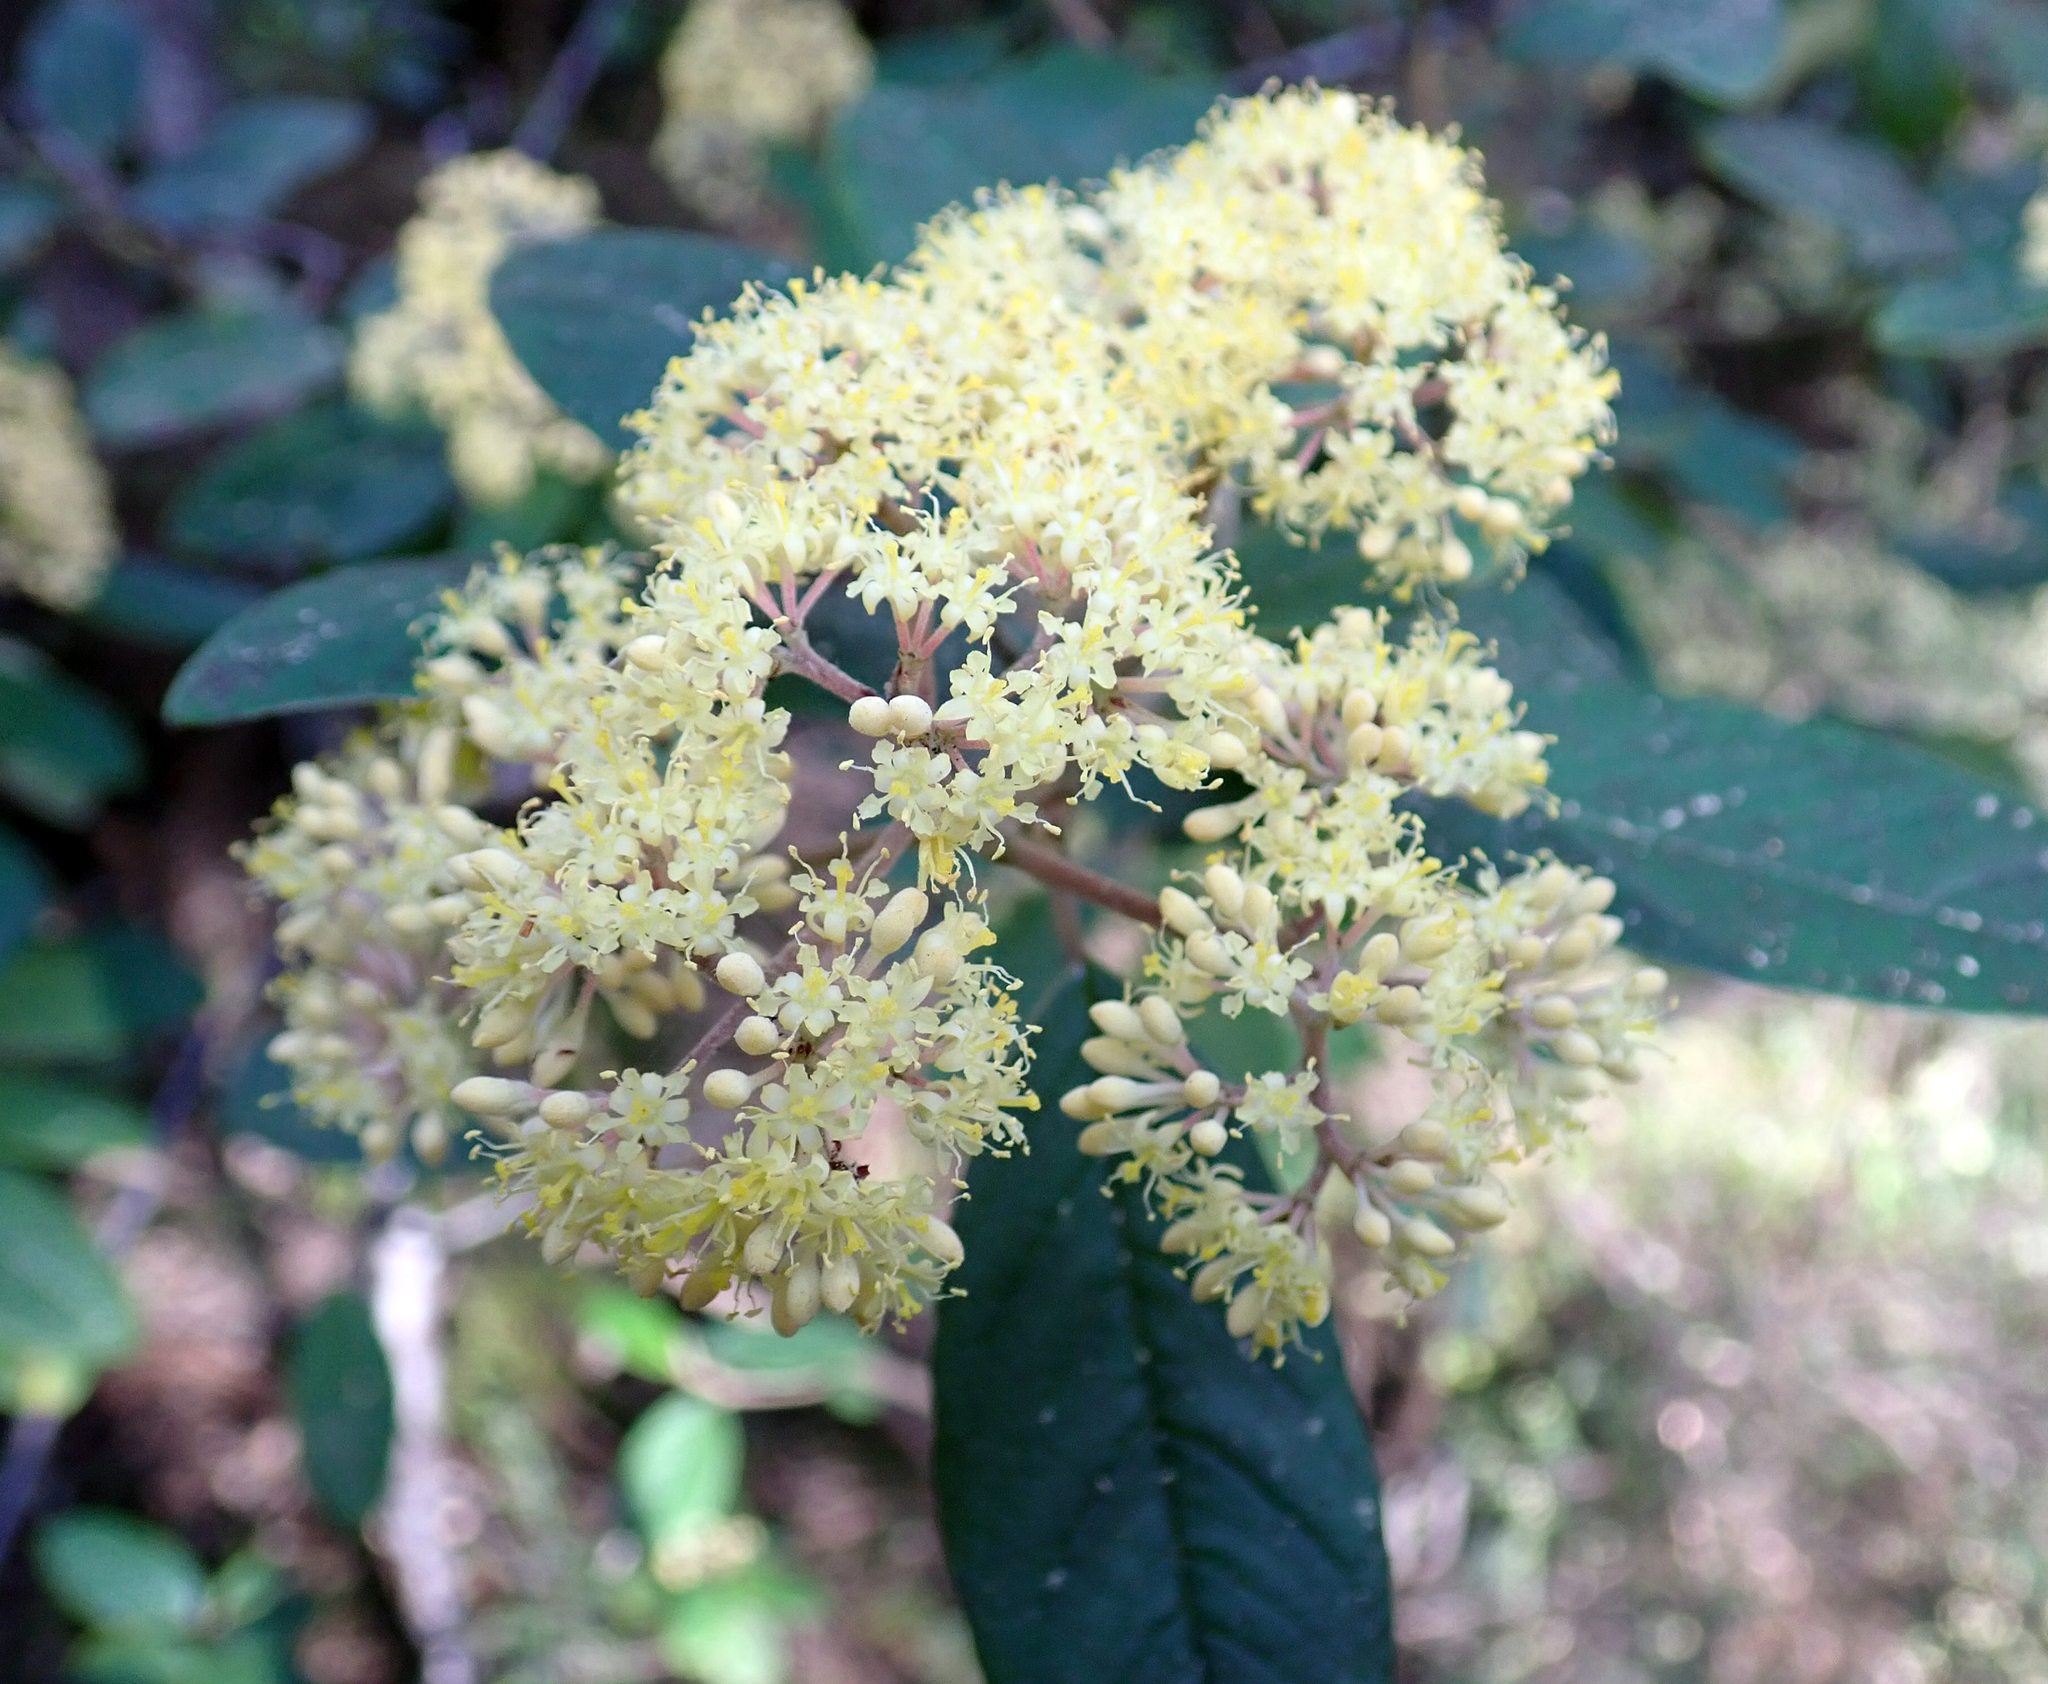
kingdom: Plantae
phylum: Tracheophyta
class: Magnoliopsida
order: Rosales
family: Rhamnaceae
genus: Pomaderris
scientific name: Pomaderris kumeraho
